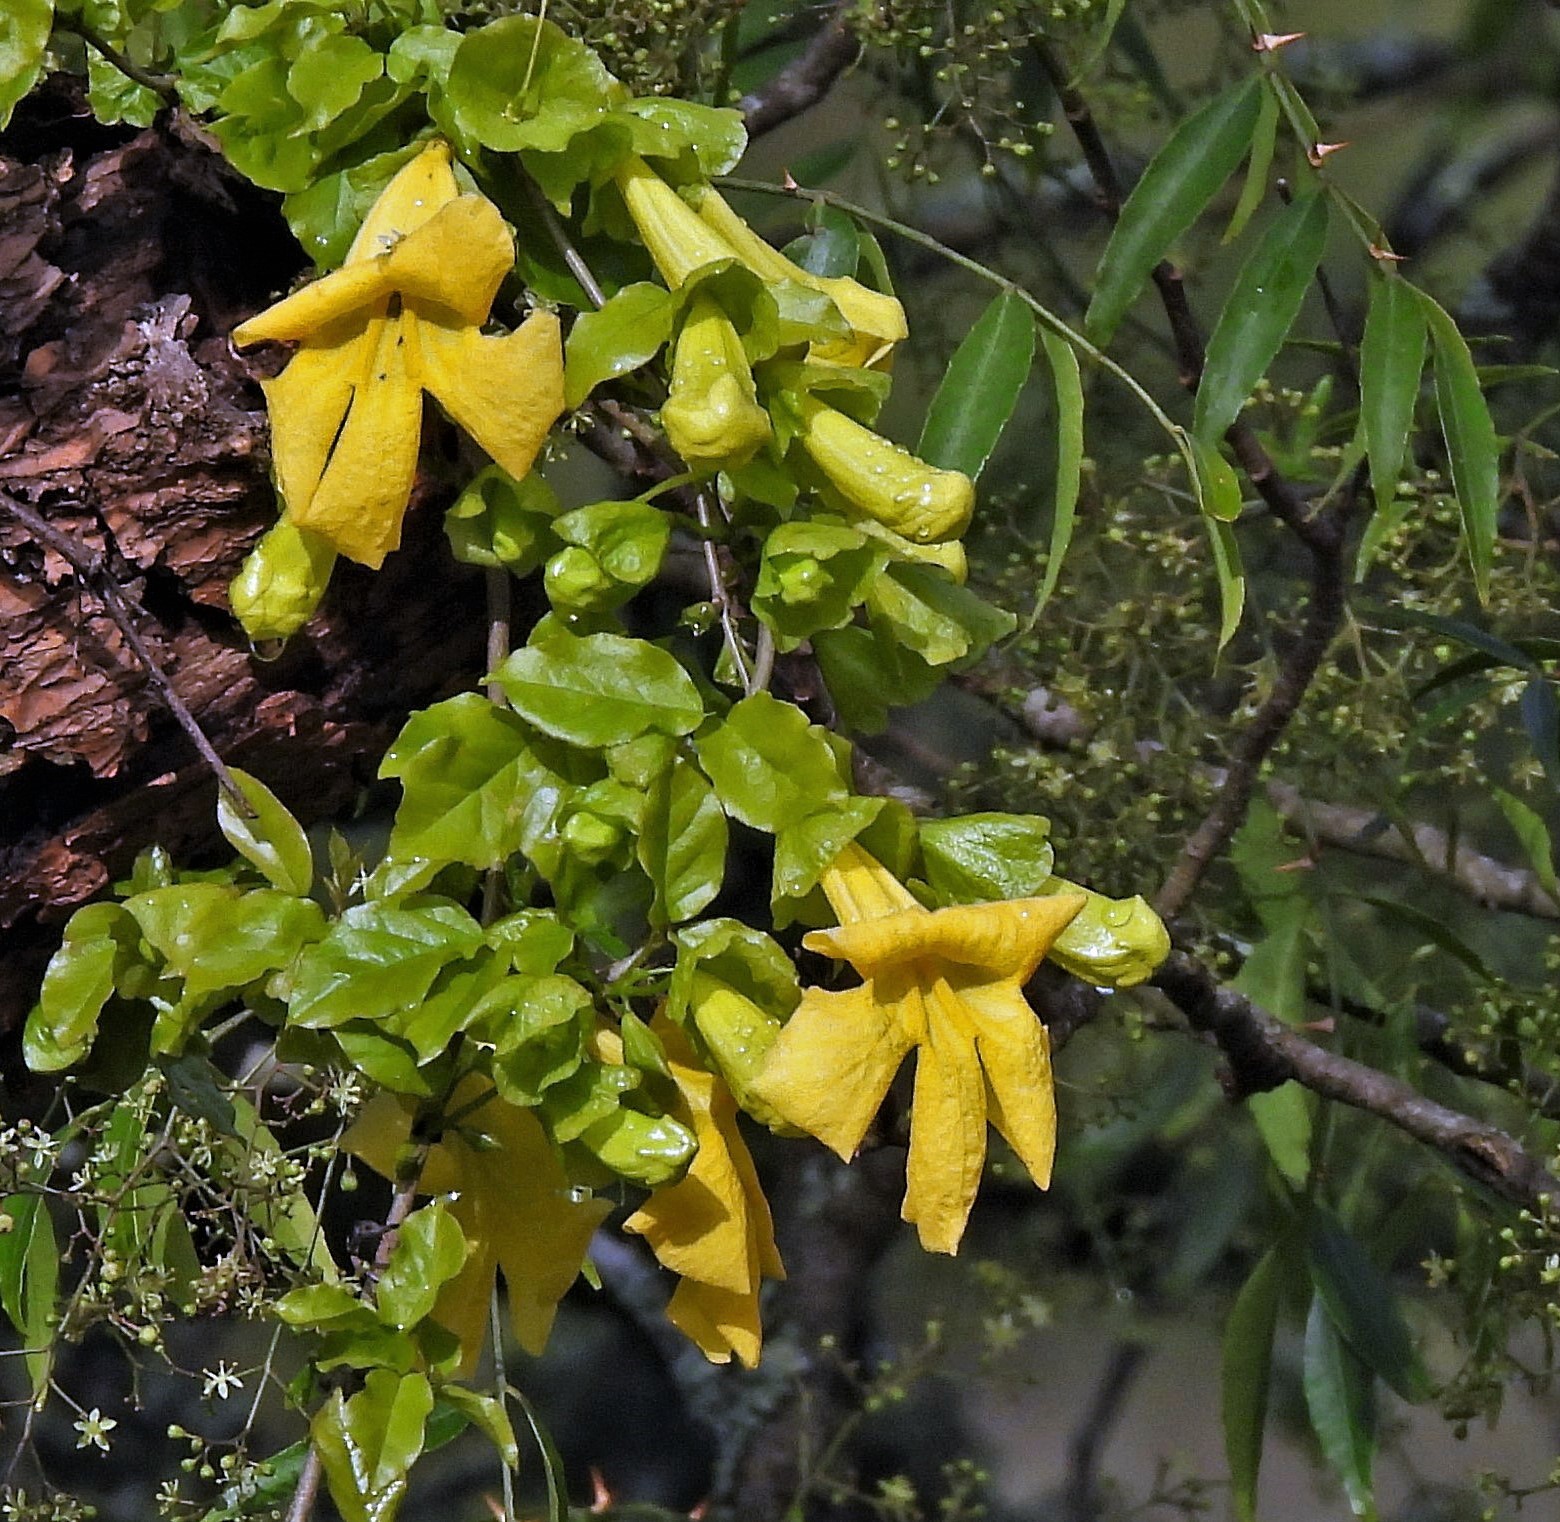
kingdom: Plantae
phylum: Tracheophyta
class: Magnoliopsida
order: Lamiales
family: Bignoniaceae
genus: Dolichandra
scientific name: Dolichandra unguis-cati
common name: Catclaw vine
